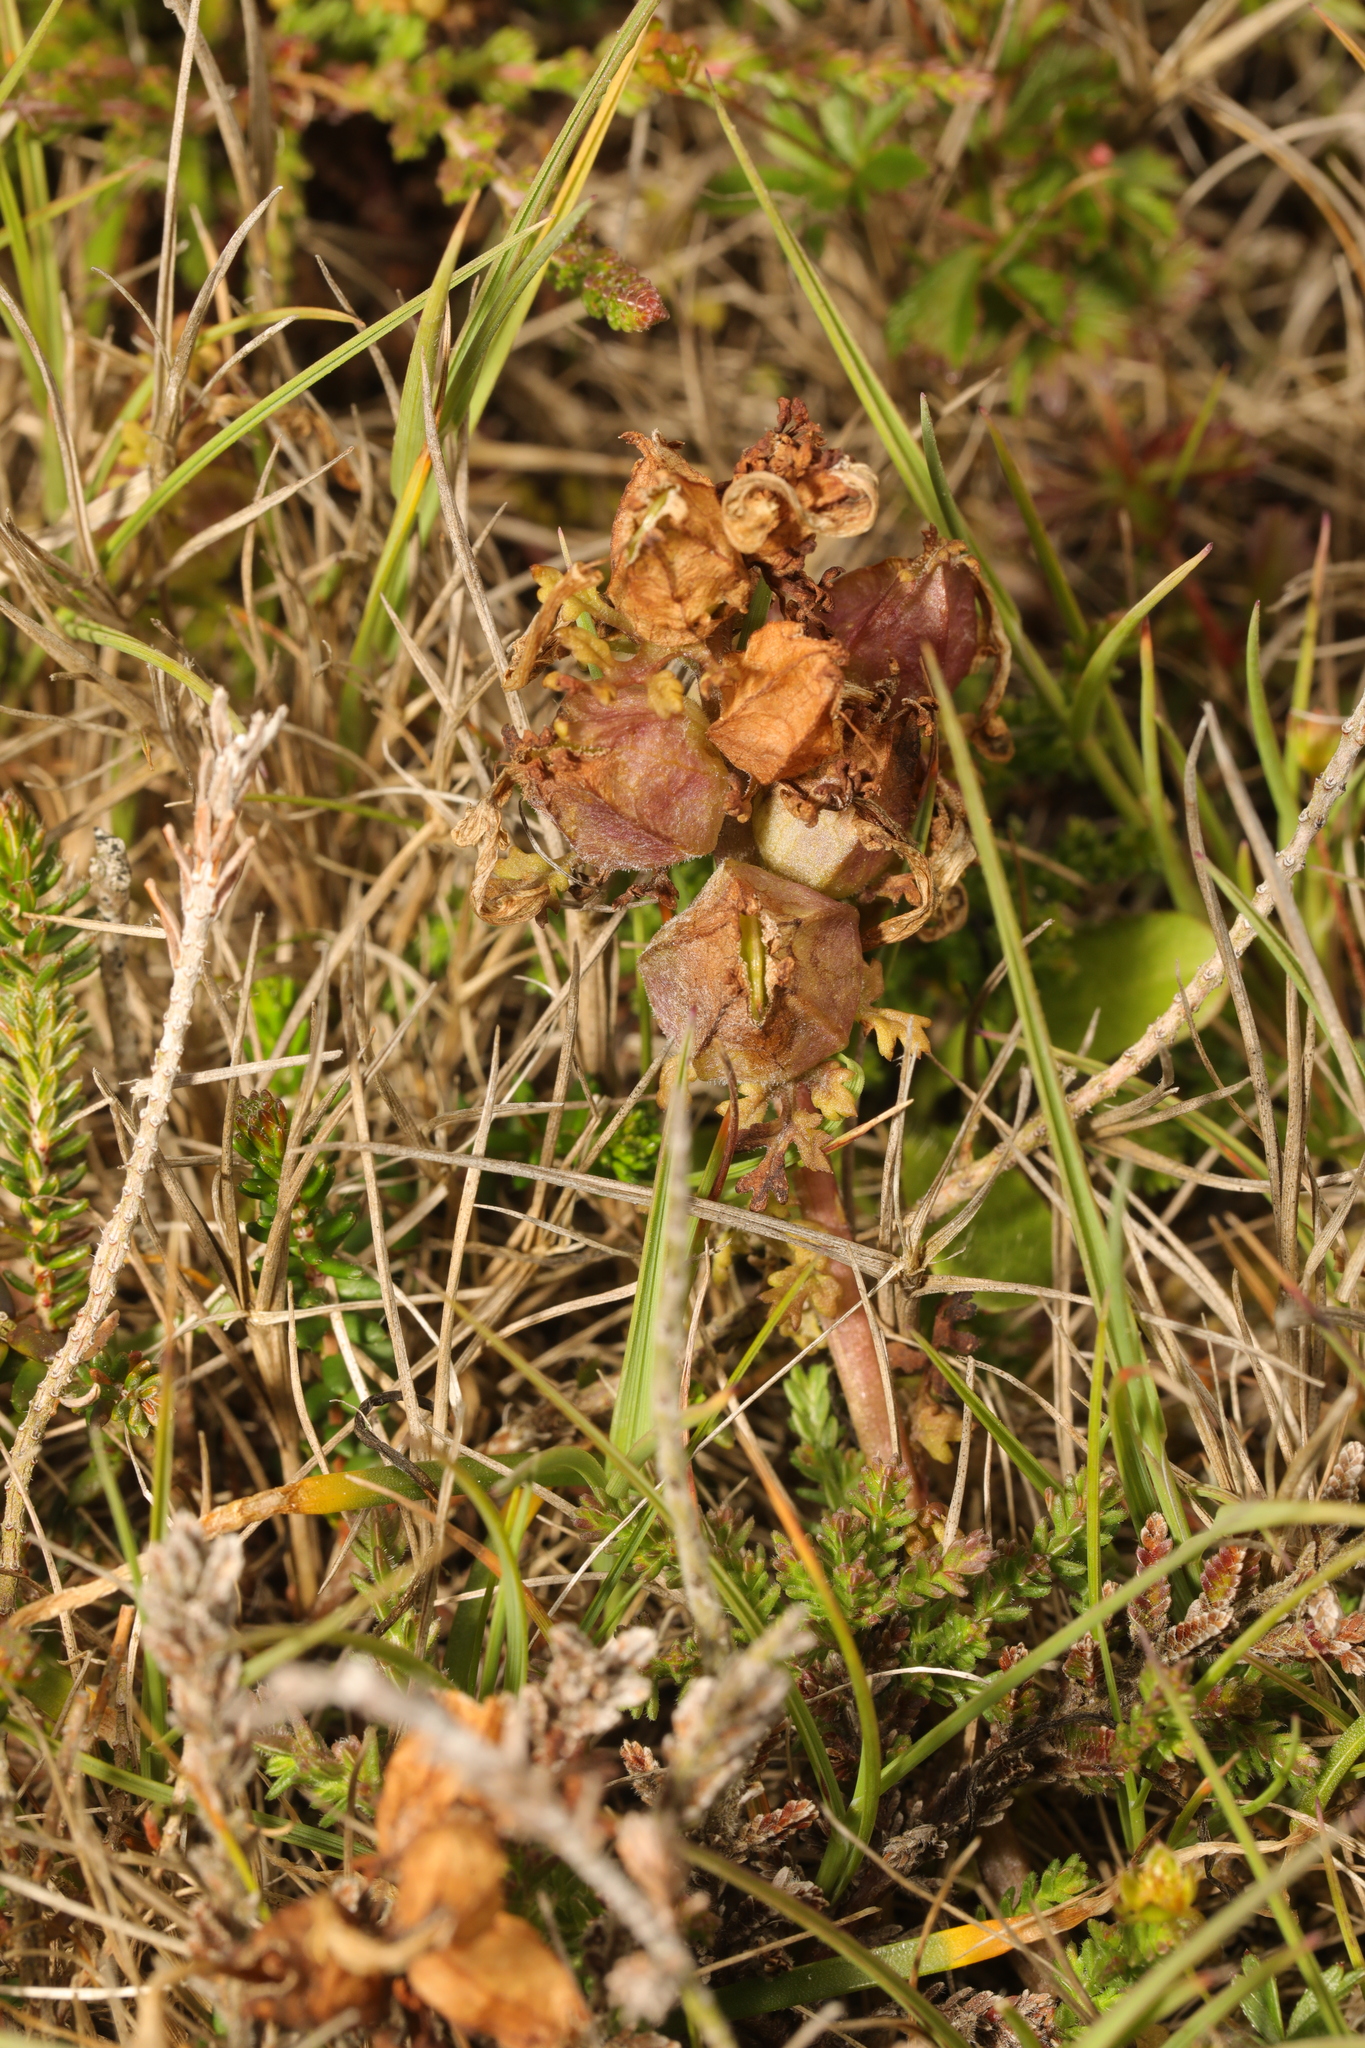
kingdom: Plantae
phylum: Tracheophyta
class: Magnoliopsida
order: Lamiales
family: Orobanchaceae
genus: Pedicularis
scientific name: Pedicularis sylvatica
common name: Lousewort
